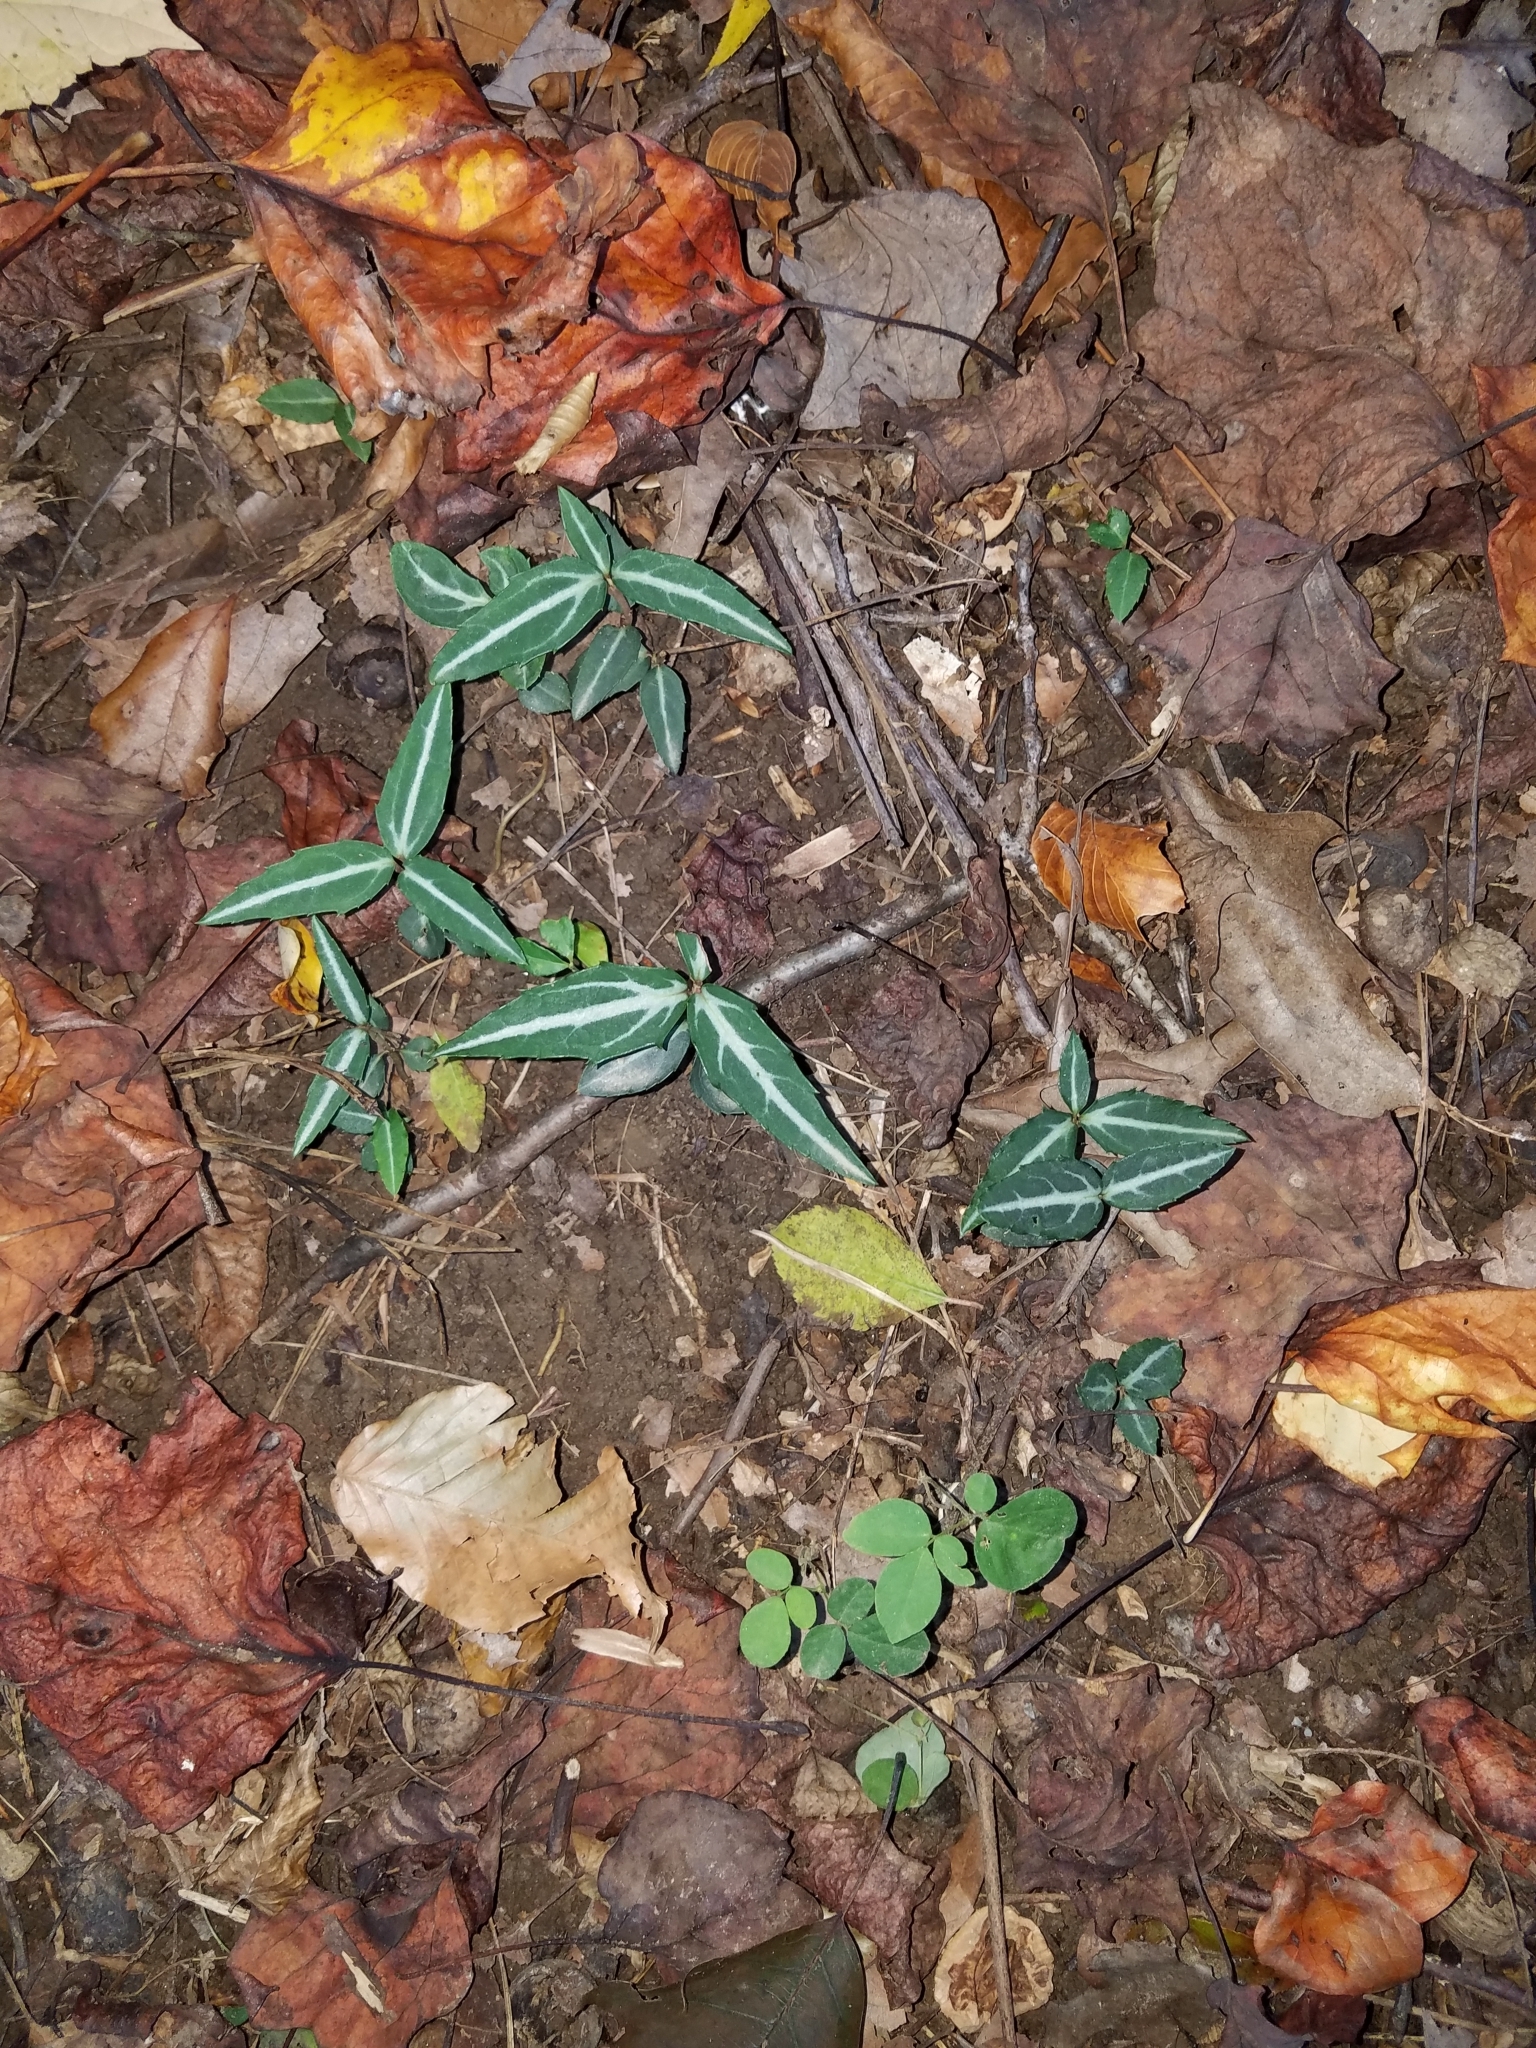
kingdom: Plantae
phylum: Tracheophyta
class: Magnoliopsida
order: Ericales
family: Ericaceae
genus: Chimaphila
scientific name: Chimaphila maculata
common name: Spotted pipsissewa
